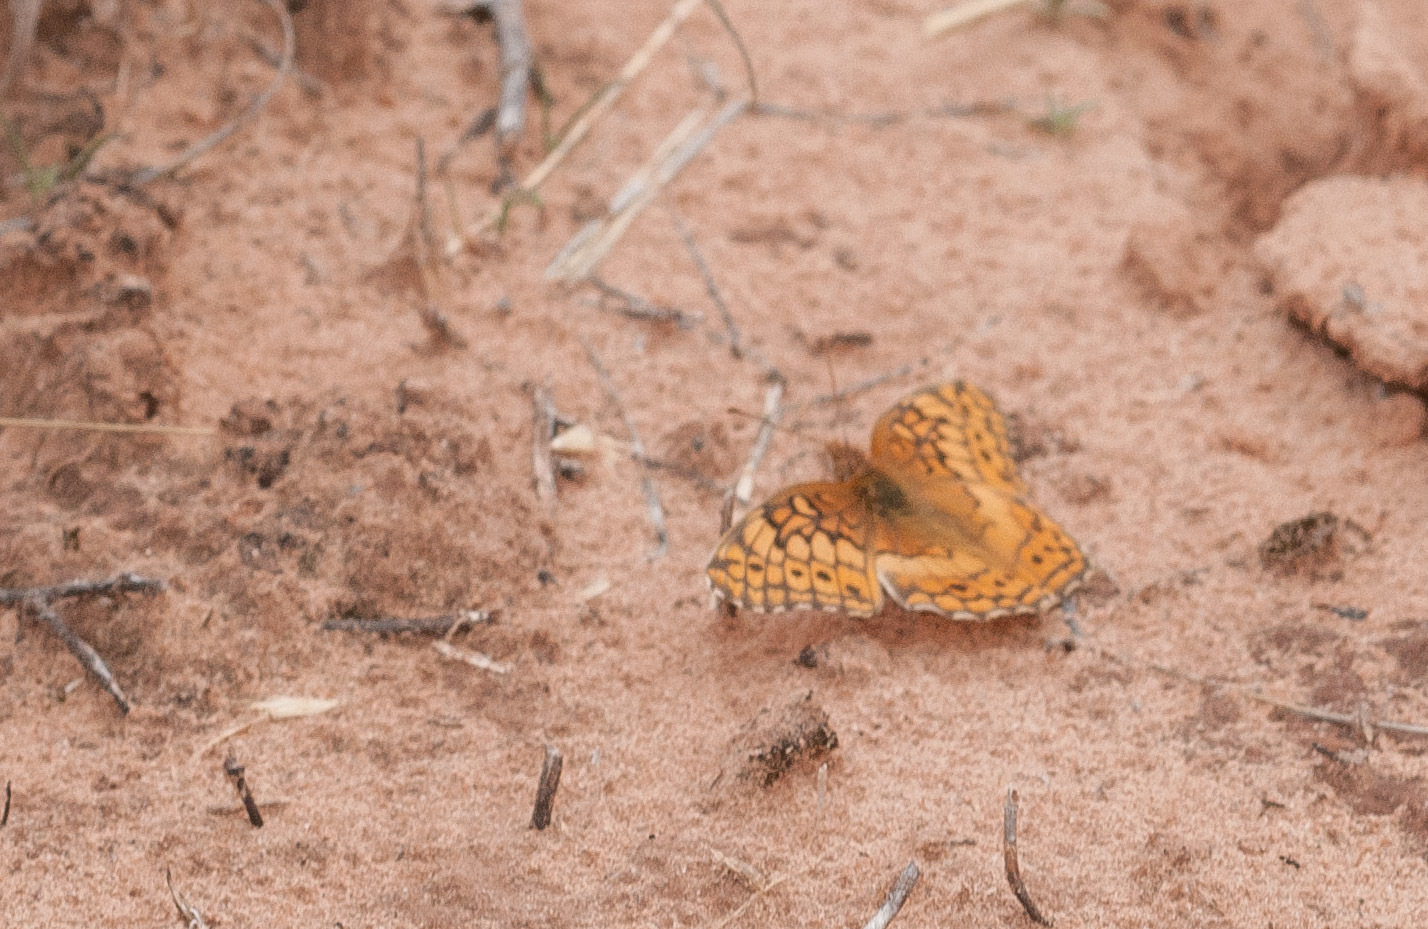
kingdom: Animalia
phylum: Arthropoda
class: Insecta
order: Lepidoptera
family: Nymphalidae
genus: Euptoieta
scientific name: Euptoieta claudia
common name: Variegated fritillary
